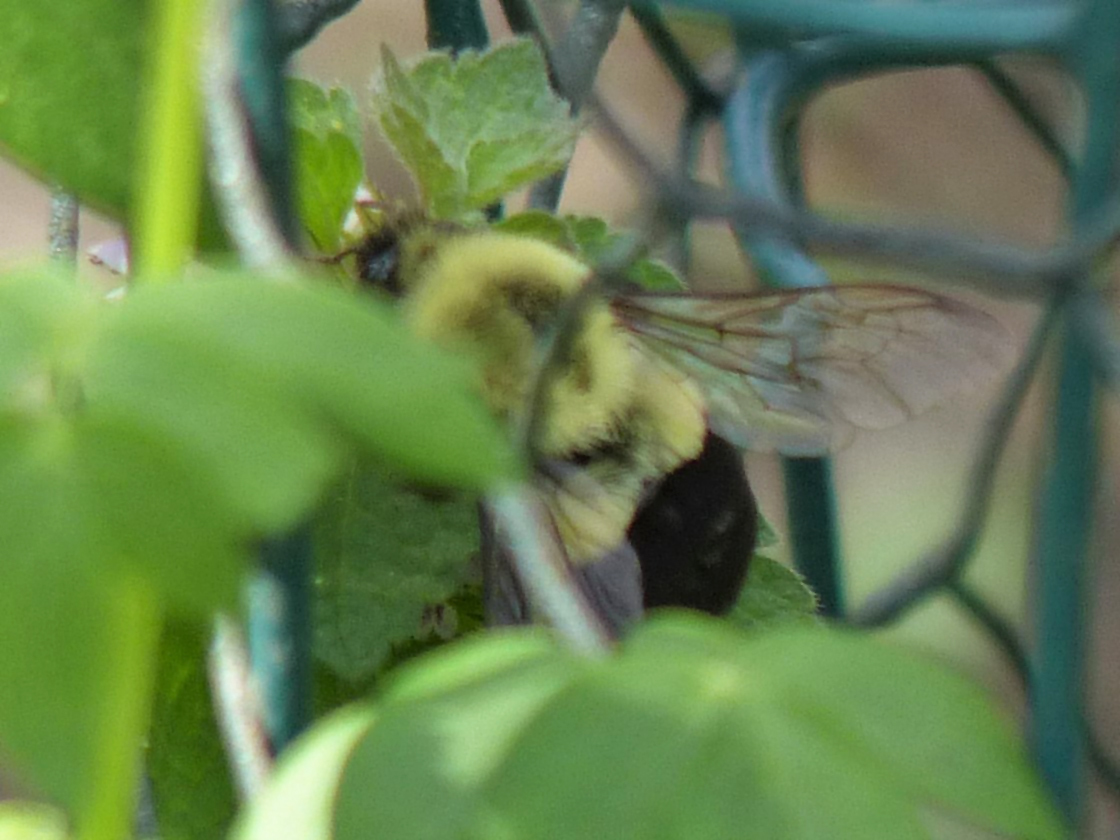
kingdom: Animalia
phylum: Arthropoda
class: Insecta
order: Hymenoptera
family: Apidae
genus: Bombus
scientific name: Bombus impatiens
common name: Common eastern bumble bee
